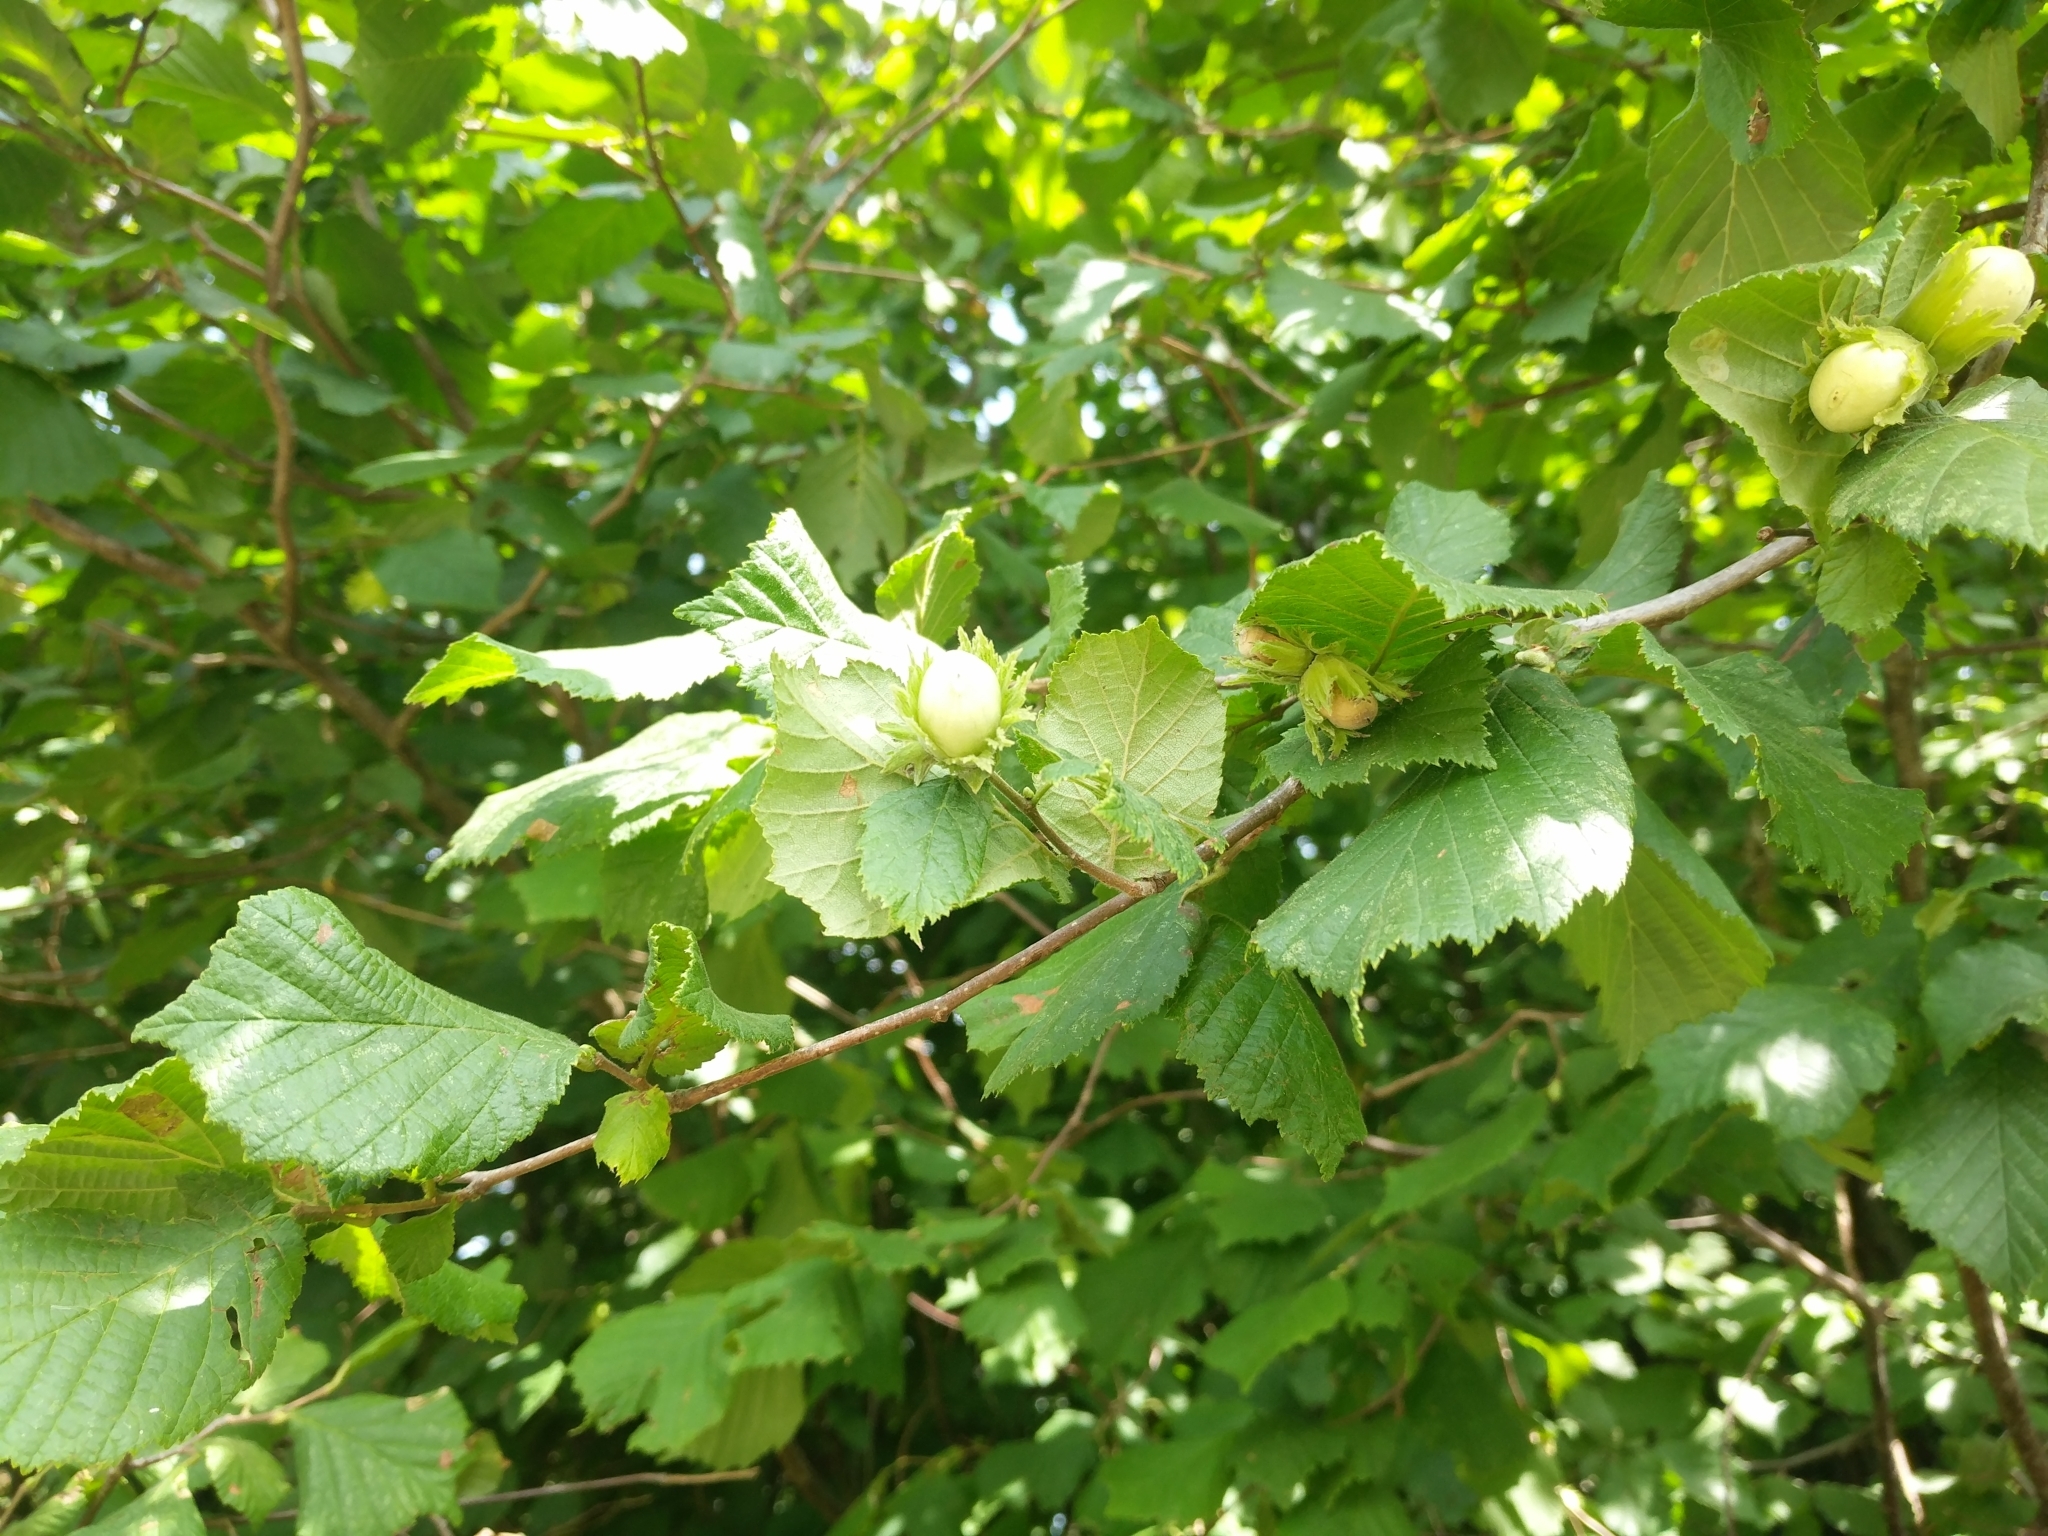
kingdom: Plantae
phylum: Tracheophyta
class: Magnoliopsida
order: Fagales
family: Betulaceae
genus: Corylus
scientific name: Corylus avellana
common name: European hazel
